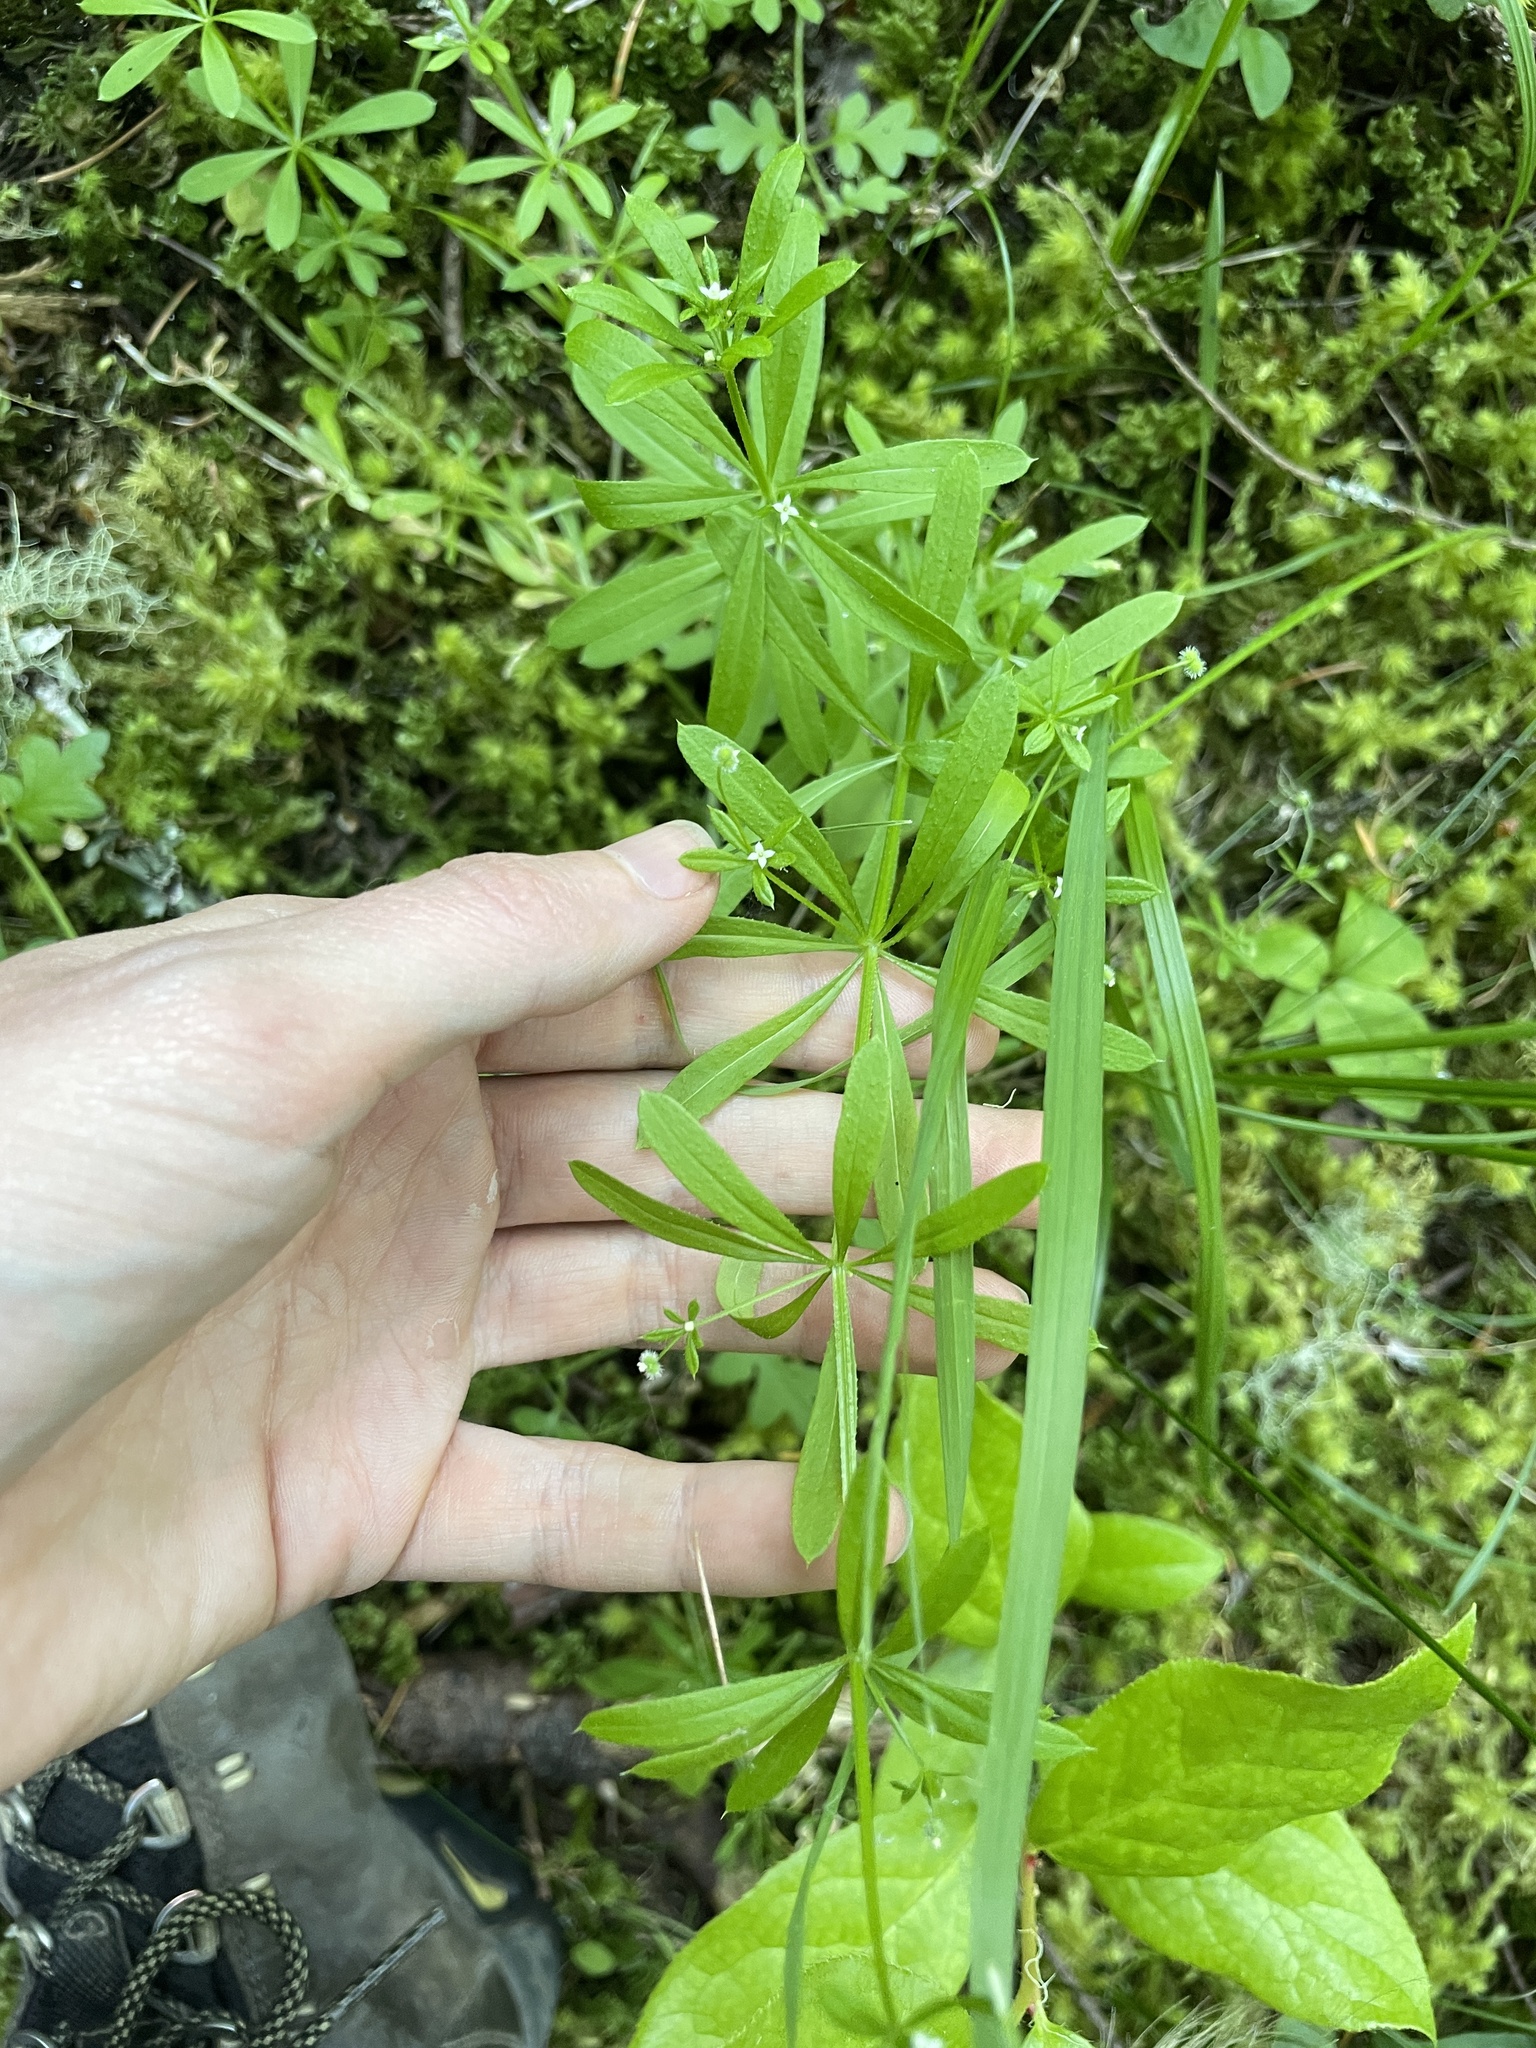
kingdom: Plantae
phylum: Tracheophyta
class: Magnoliopsida
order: Gentianales
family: Rubiaceae
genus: Galium
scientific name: Galium aparine
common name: Cleavers
